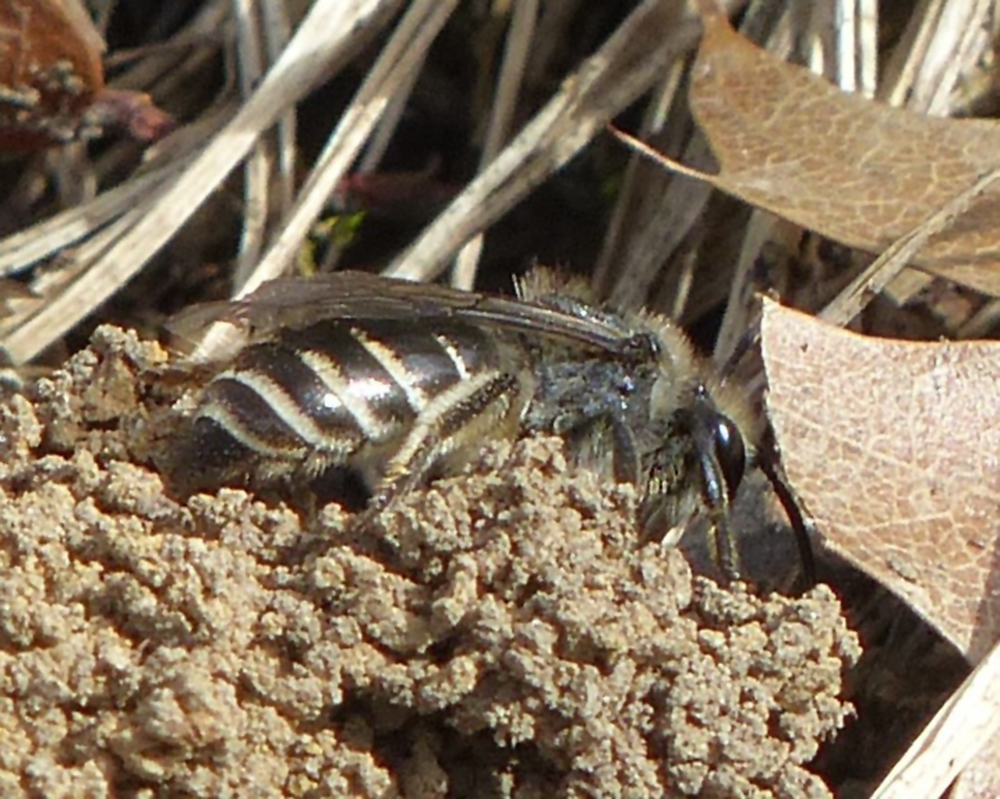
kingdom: Animalia
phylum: Arthropoda
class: Insecta
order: Hymenoptera
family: Colletidae
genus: Colletes
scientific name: Colletes inaequalis
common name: Unequal cellophane bee
